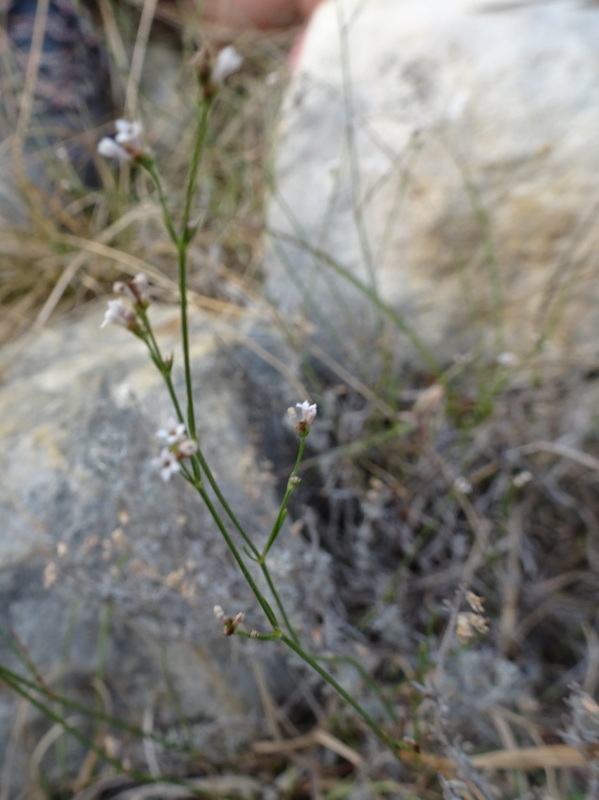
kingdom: Plantae
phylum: Tracheophyta
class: Magnoliopsida
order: Gentianales
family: Rubiaceae
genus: Cynanchica
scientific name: Cynanchica pyrenaica
